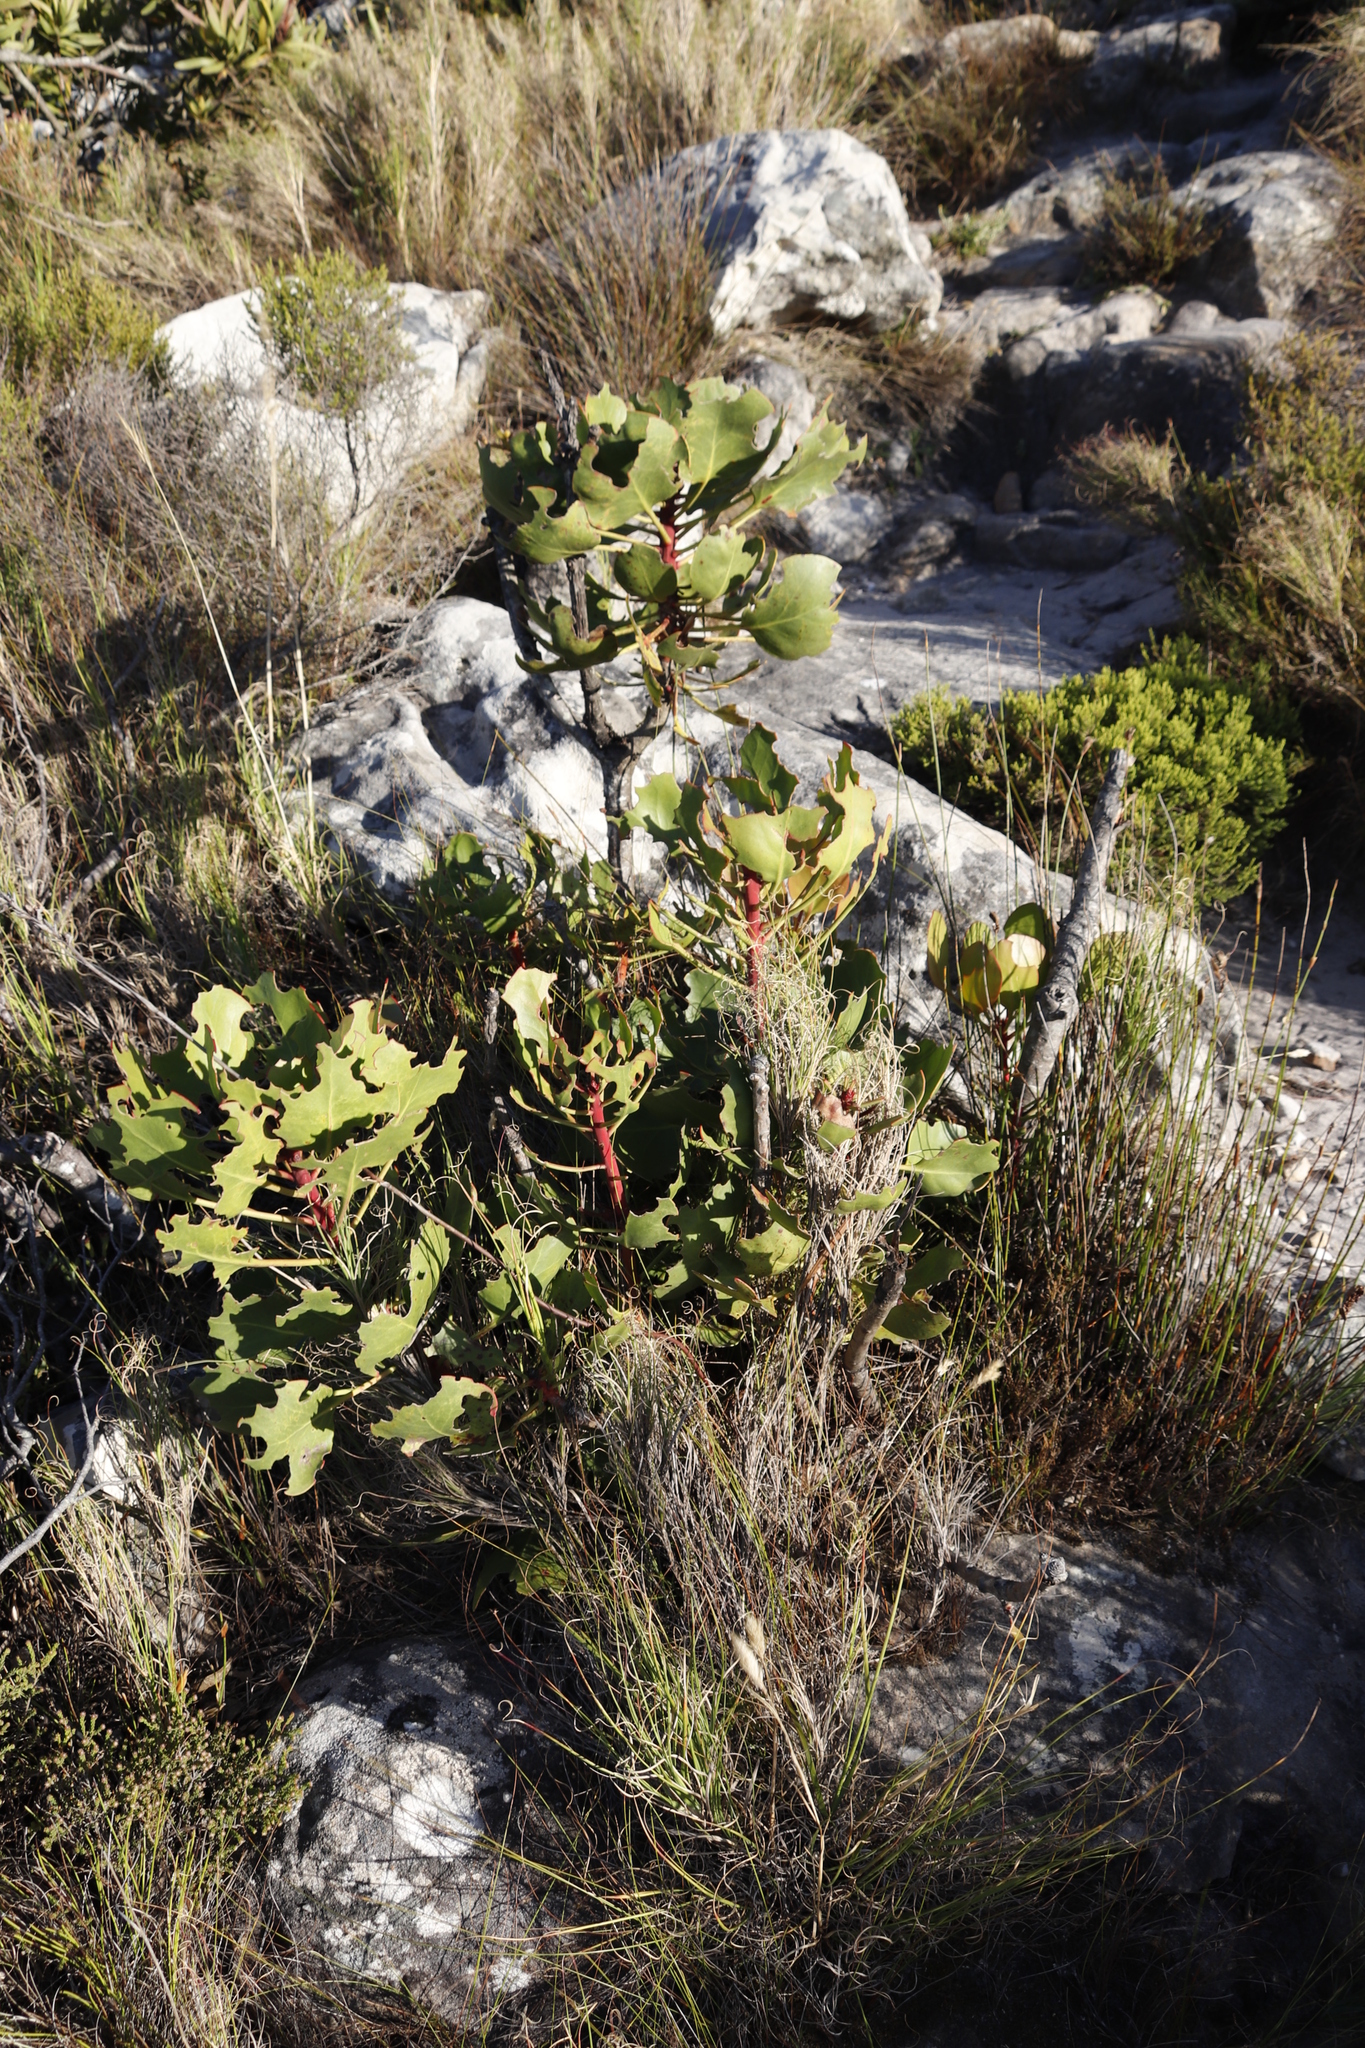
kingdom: Plantae
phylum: Tracheophyta
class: Magnoliopsida
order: Proteales
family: Proteaceae
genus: Protea
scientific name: Protea cynaroides
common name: King protea
